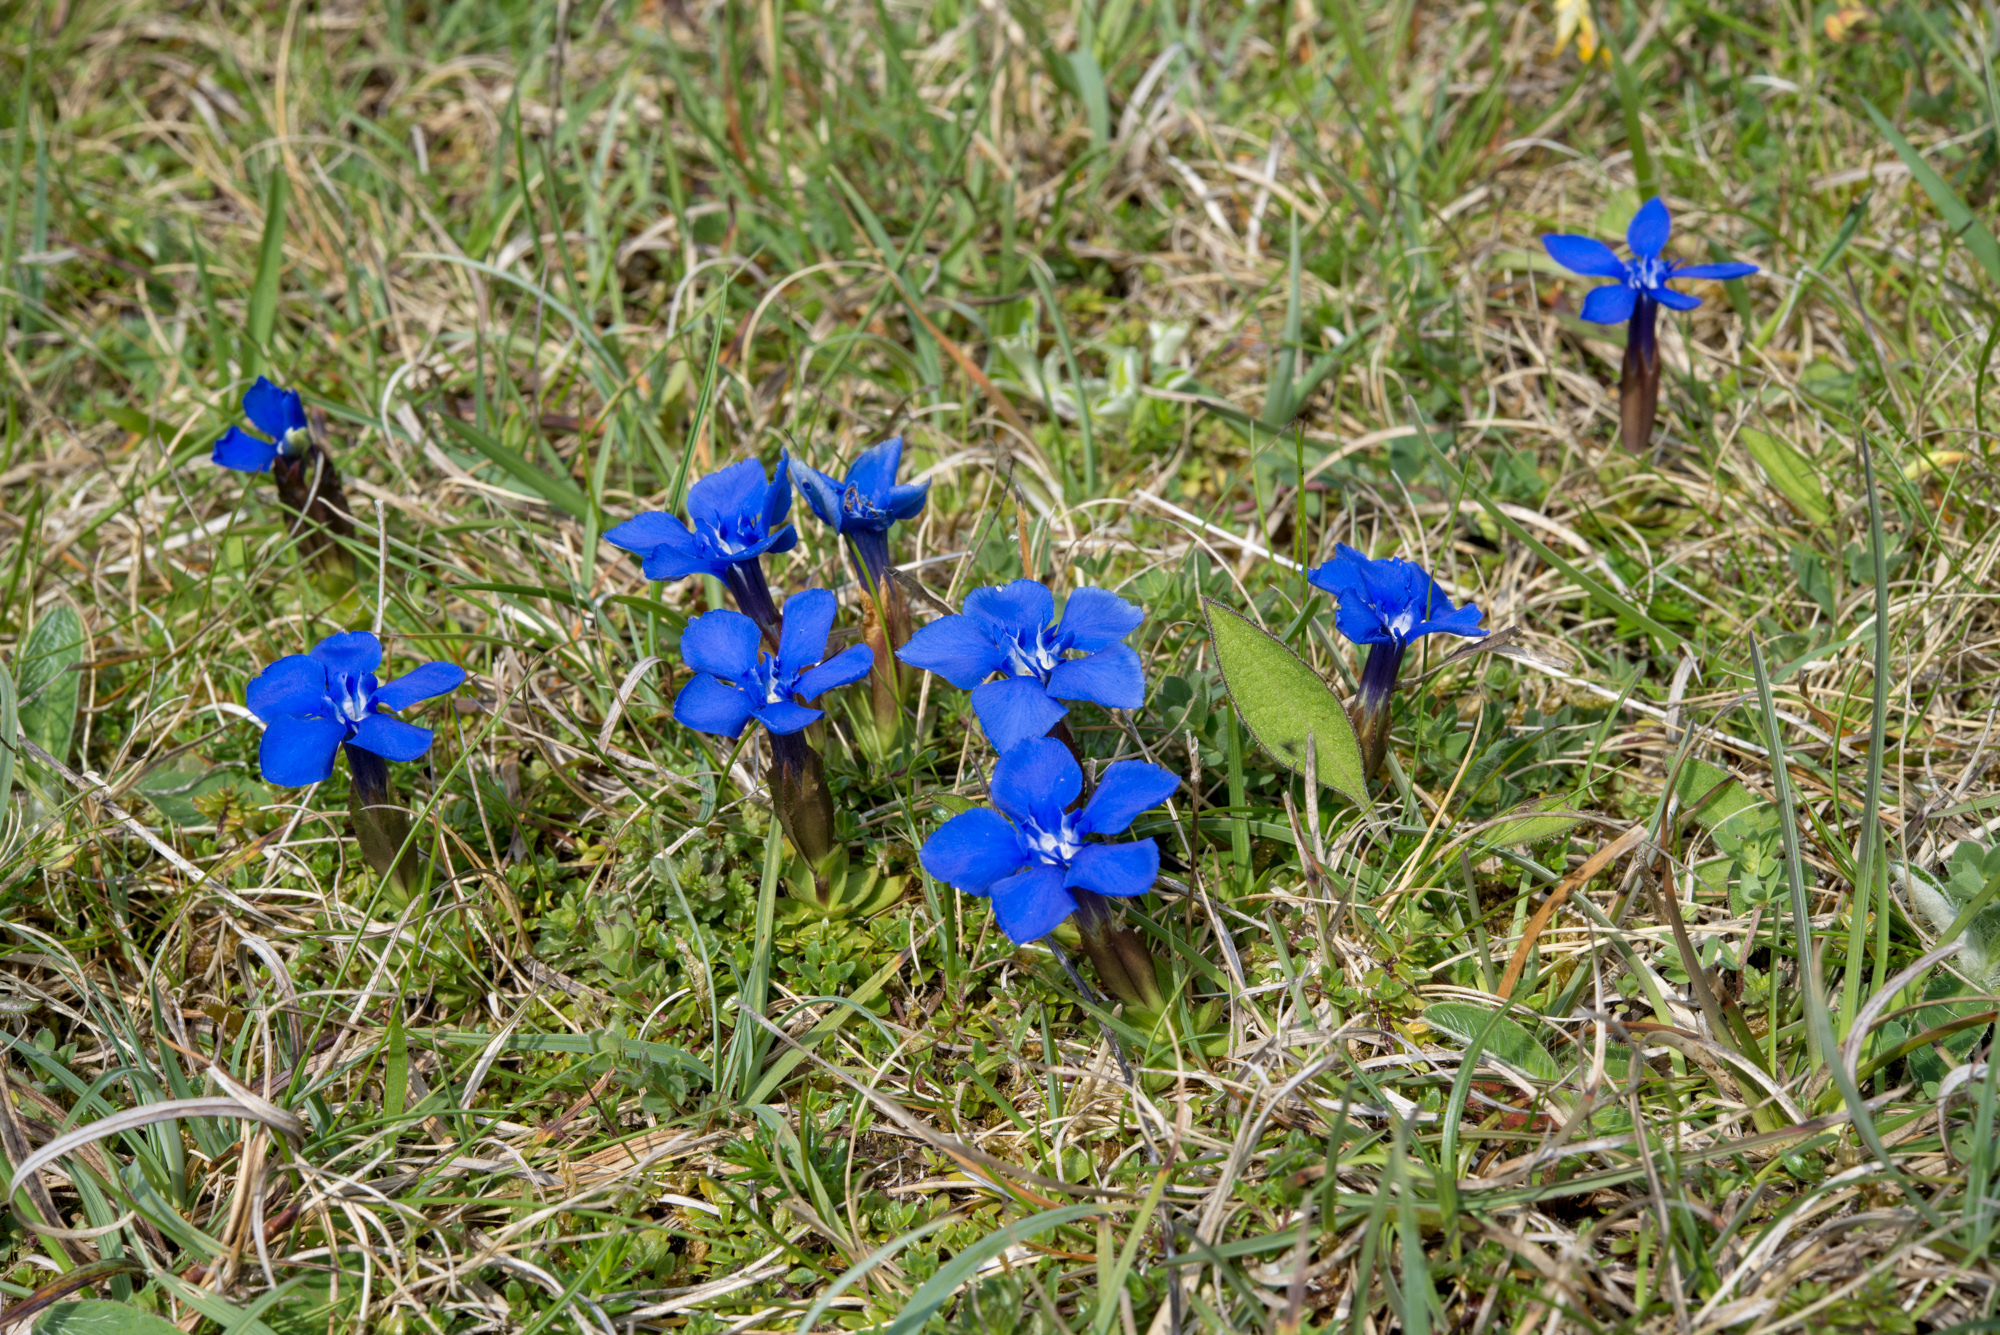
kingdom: Plantae
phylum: Tracheophyta
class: Magnoliopsida
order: Gentianales
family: Gentianaceae
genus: Gentiana
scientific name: Gentiana verna
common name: Spring gentian
